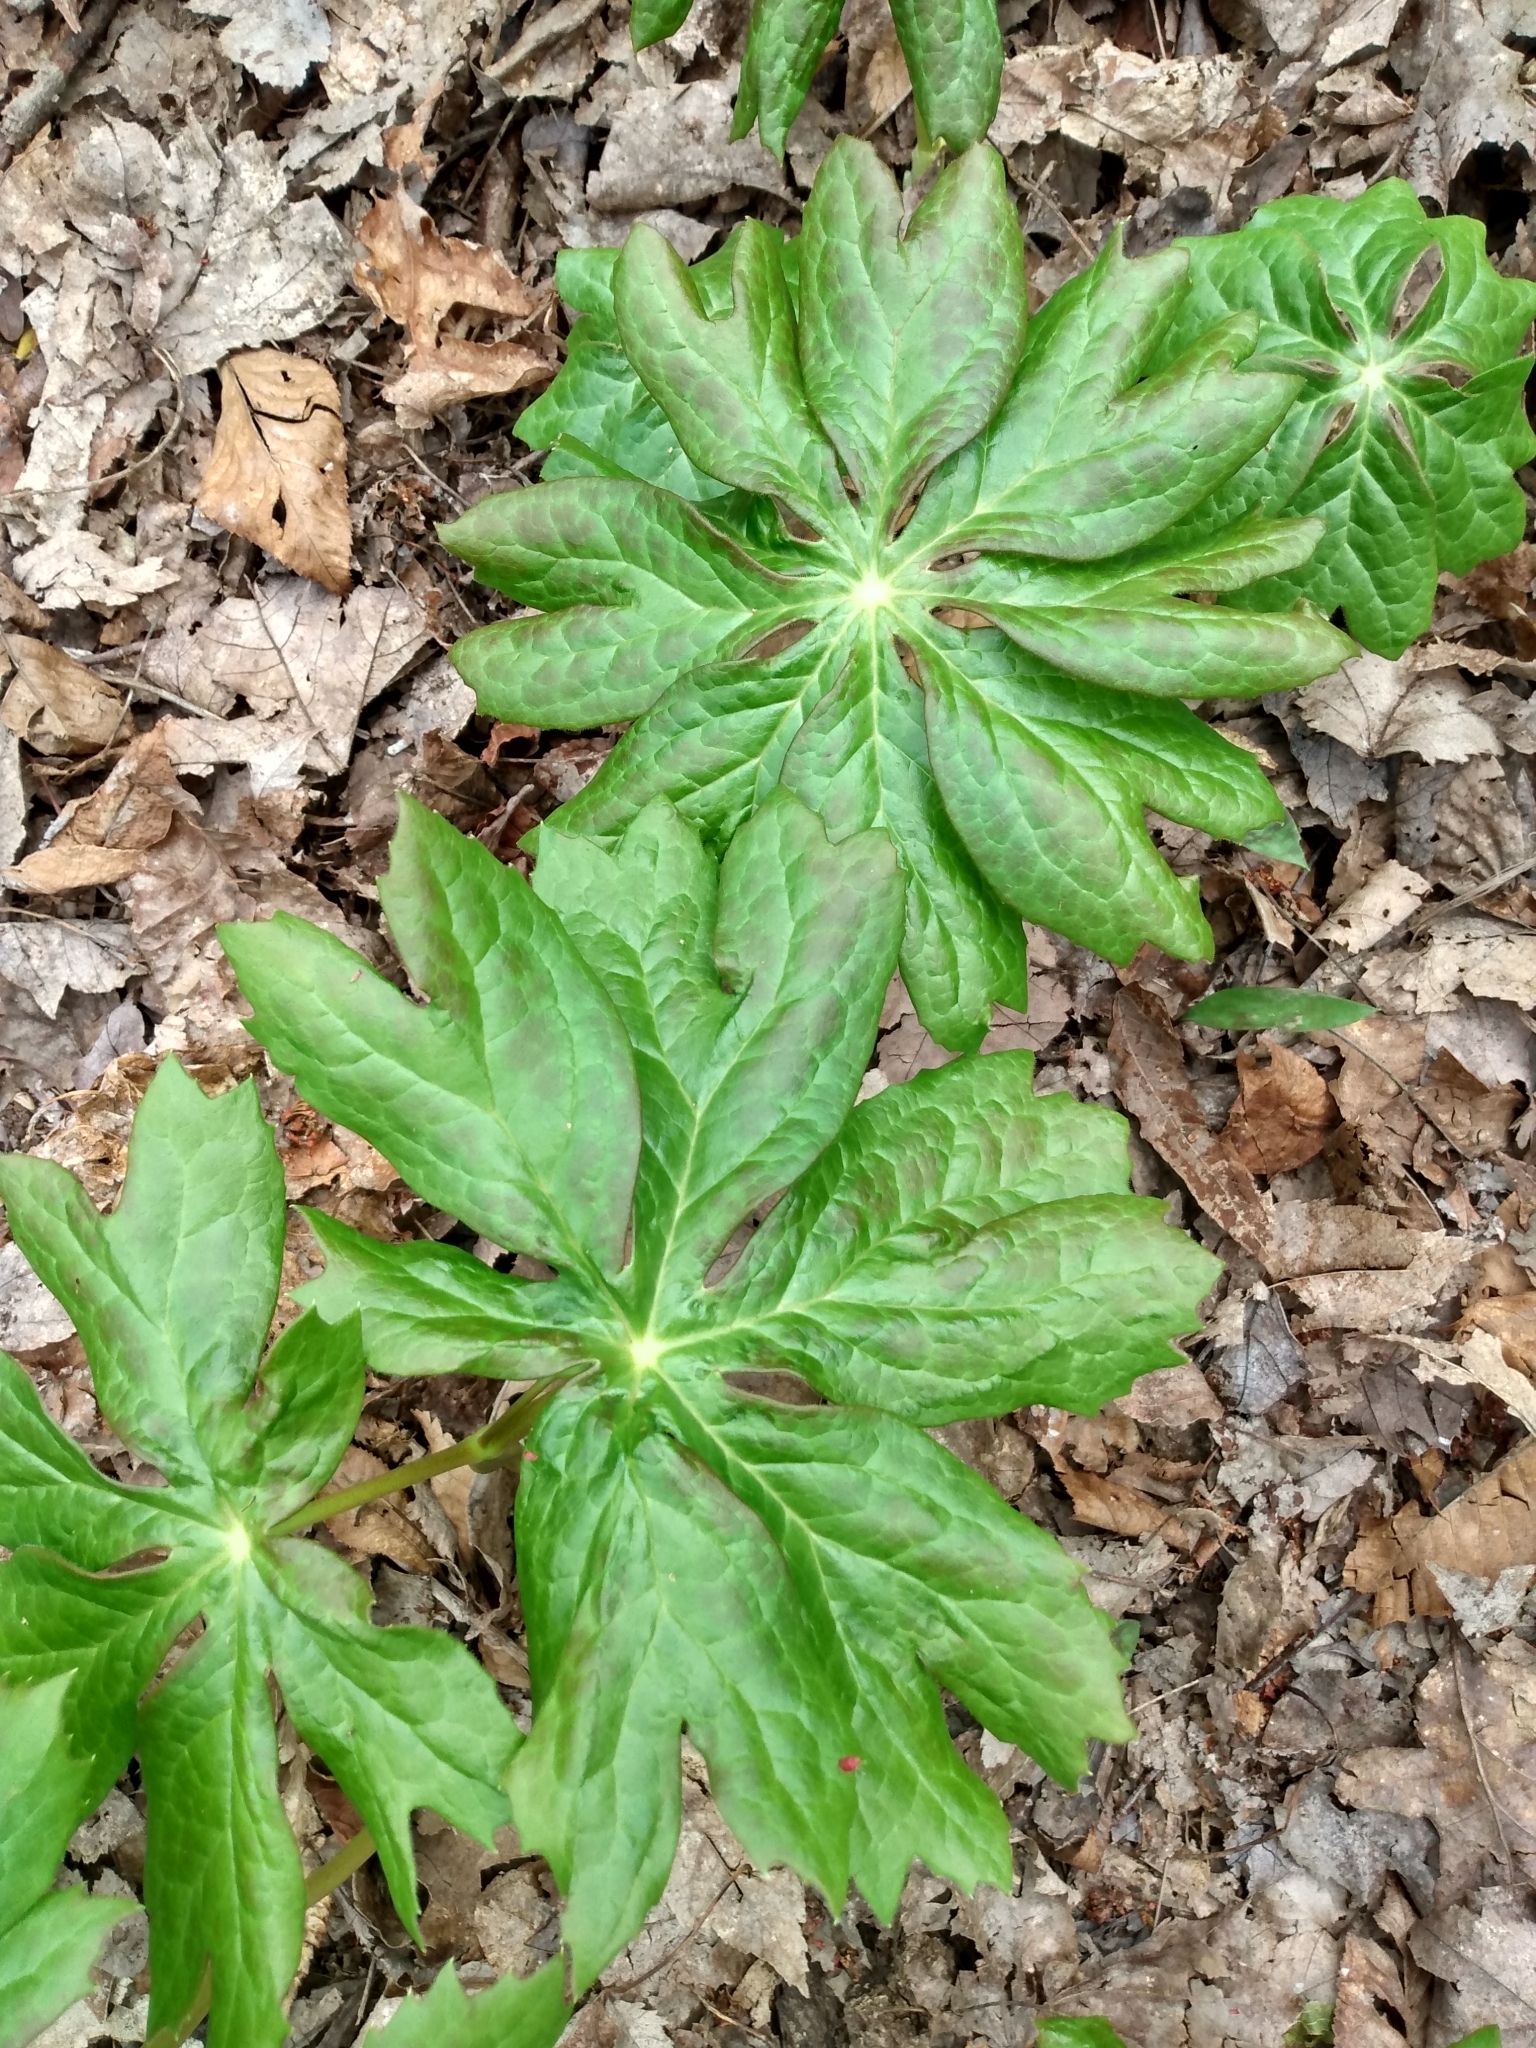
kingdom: Plantae
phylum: Tracheophyta
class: Magnoliopsida
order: Ranunculales
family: Berberidaceae
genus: Podophyllum
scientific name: Podophyllum peltatum
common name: Wild mandrake
